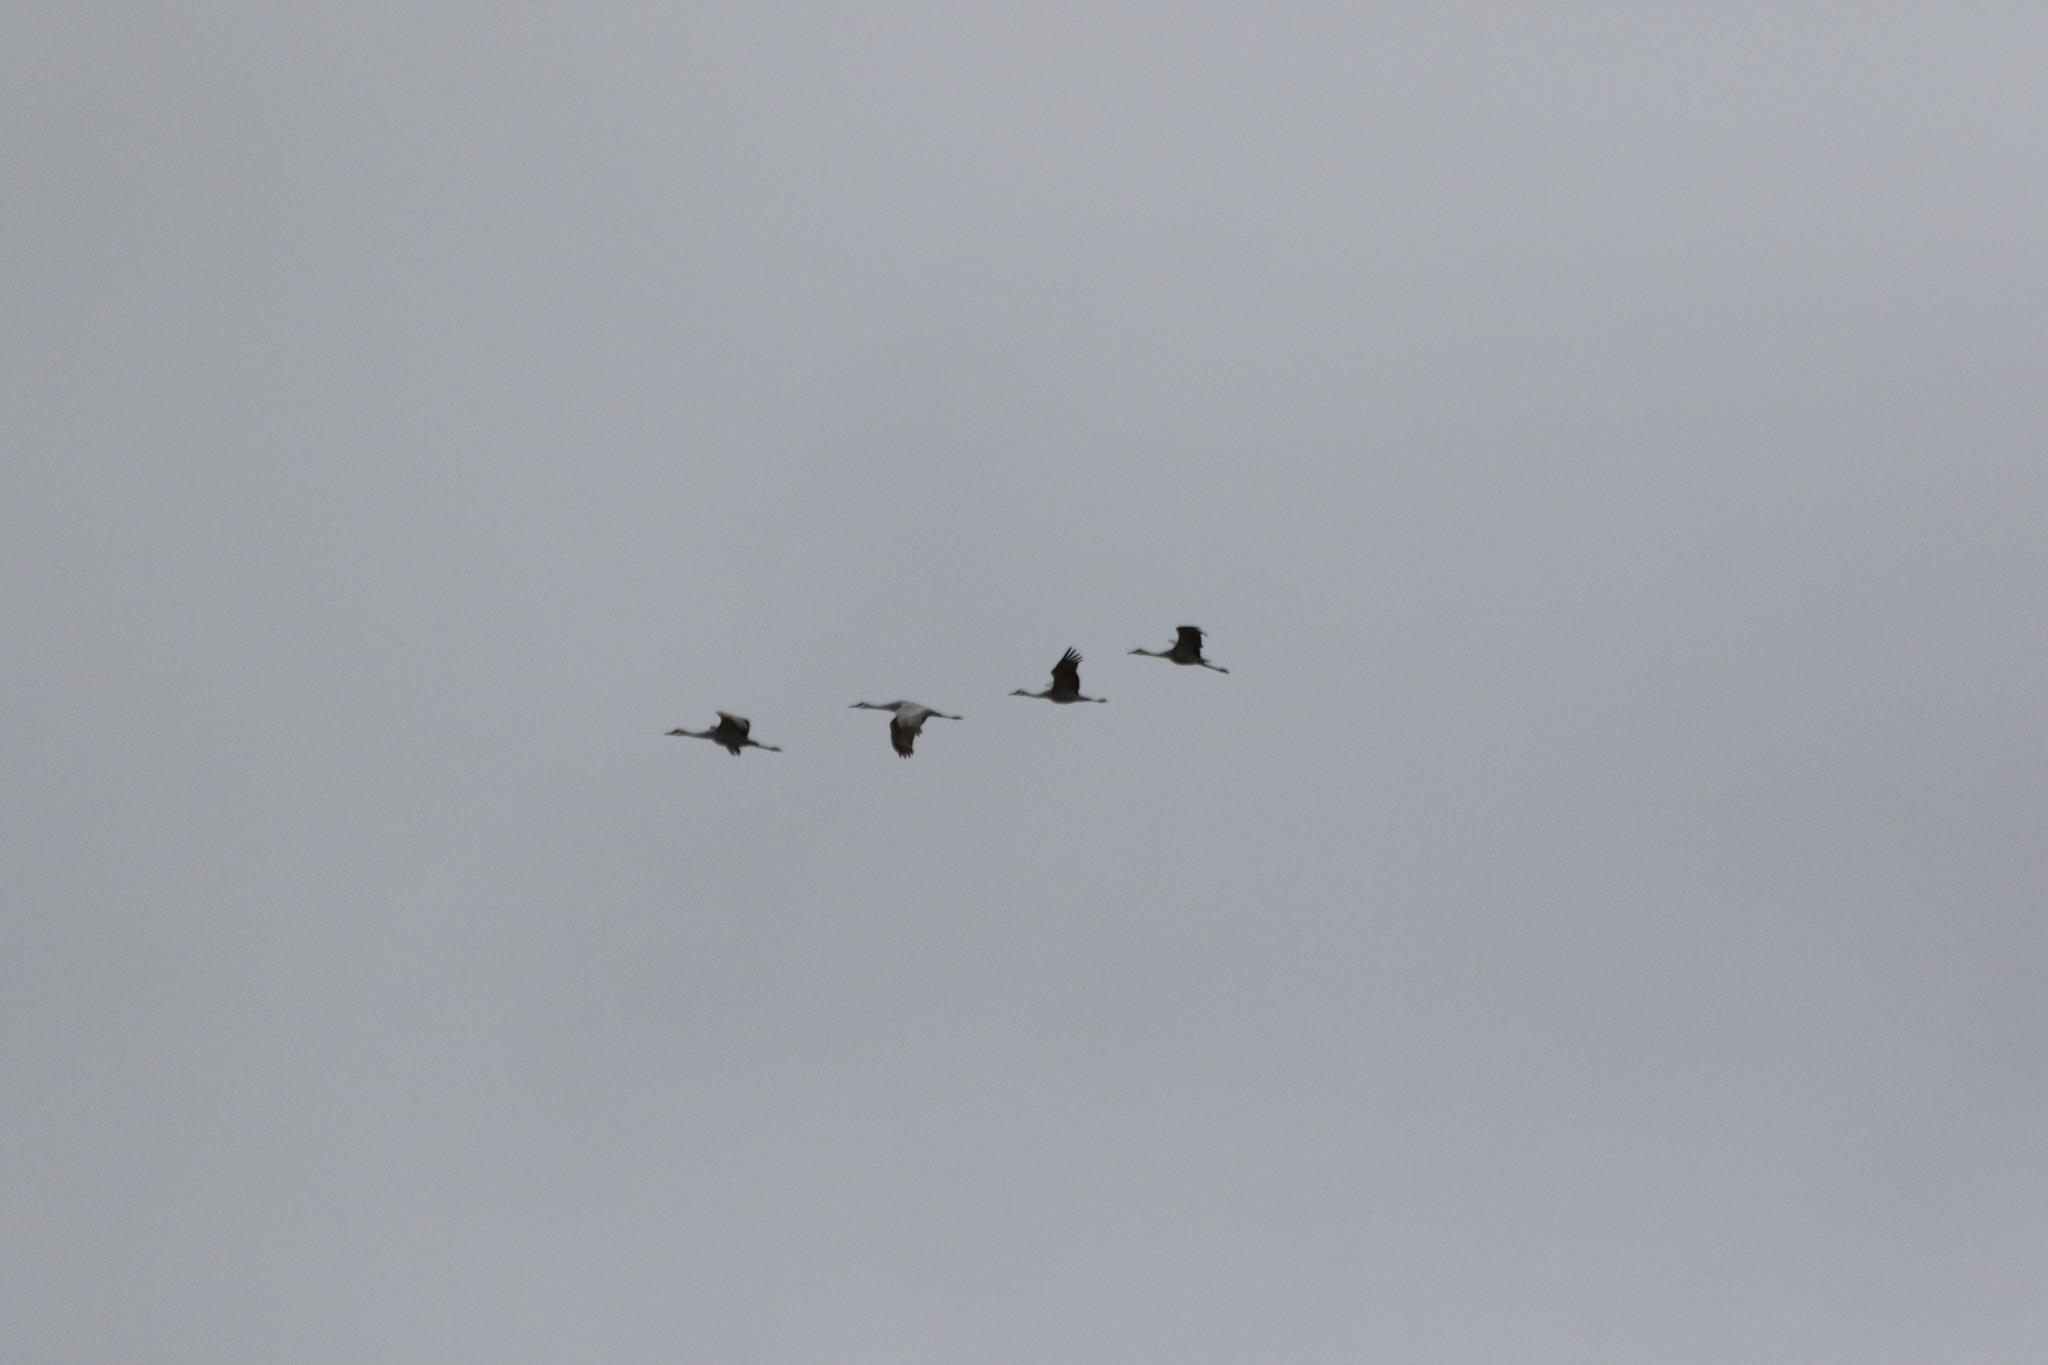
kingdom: Animalia
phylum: Chordata
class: Aves
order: Gruiformes
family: Gruidae
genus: Grus
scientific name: Grus canadensis
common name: Sandhill crane
